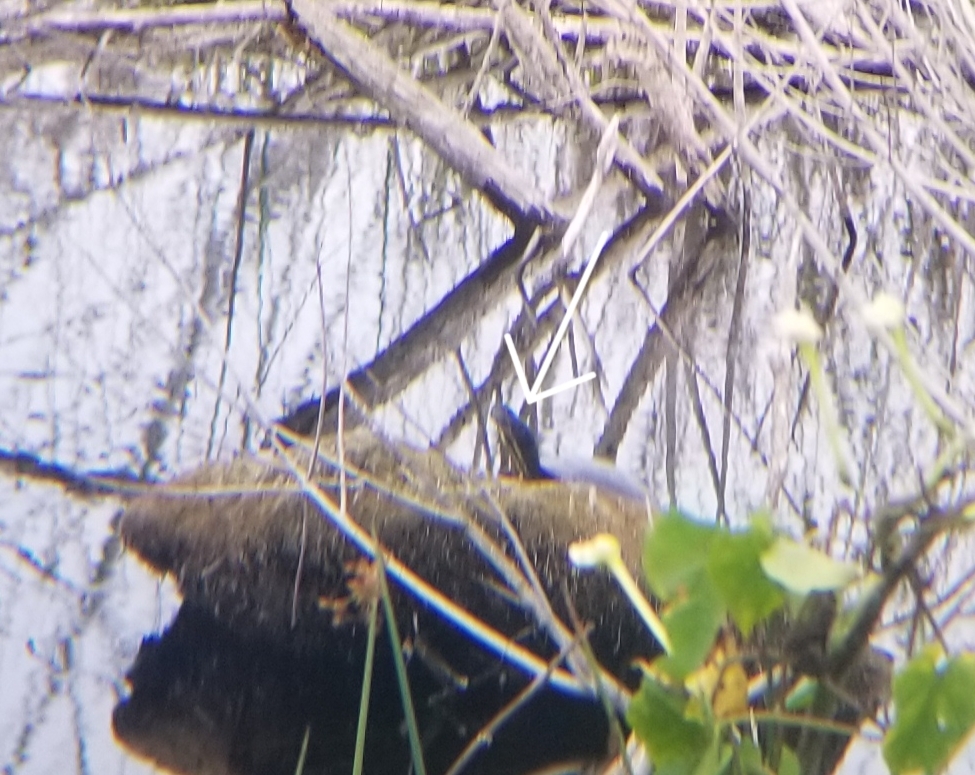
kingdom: Animalia
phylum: Chordata
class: Testudines
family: Emydidae
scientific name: Emydidae
